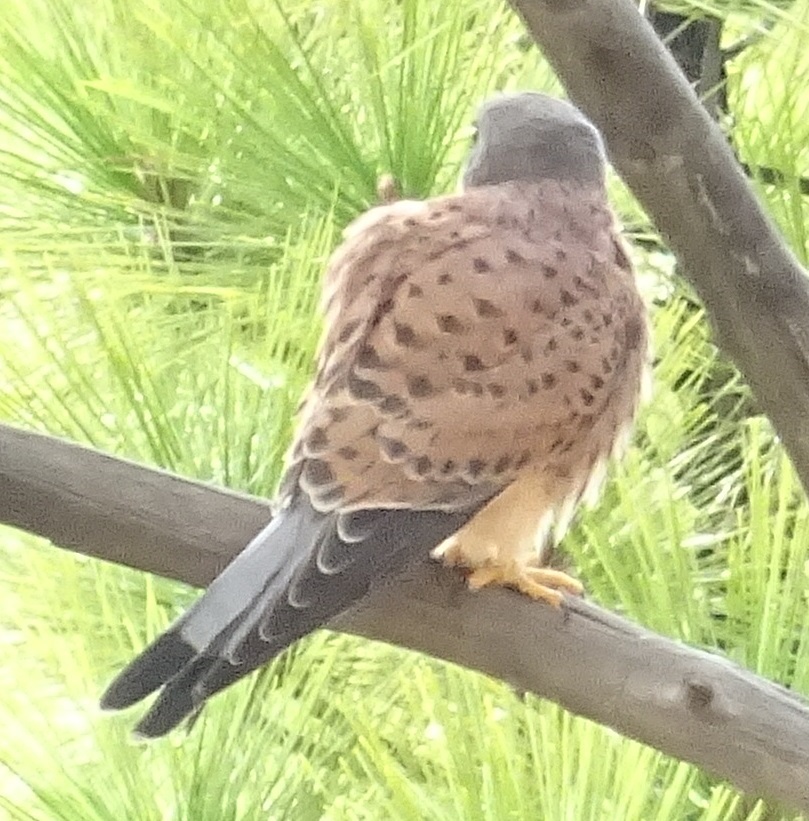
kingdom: Animalia
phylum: Chordata
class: Aves
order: Falconiformes
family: Falconidae
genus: Falco
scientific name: Falco tinnunculus
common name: Common kestrel
